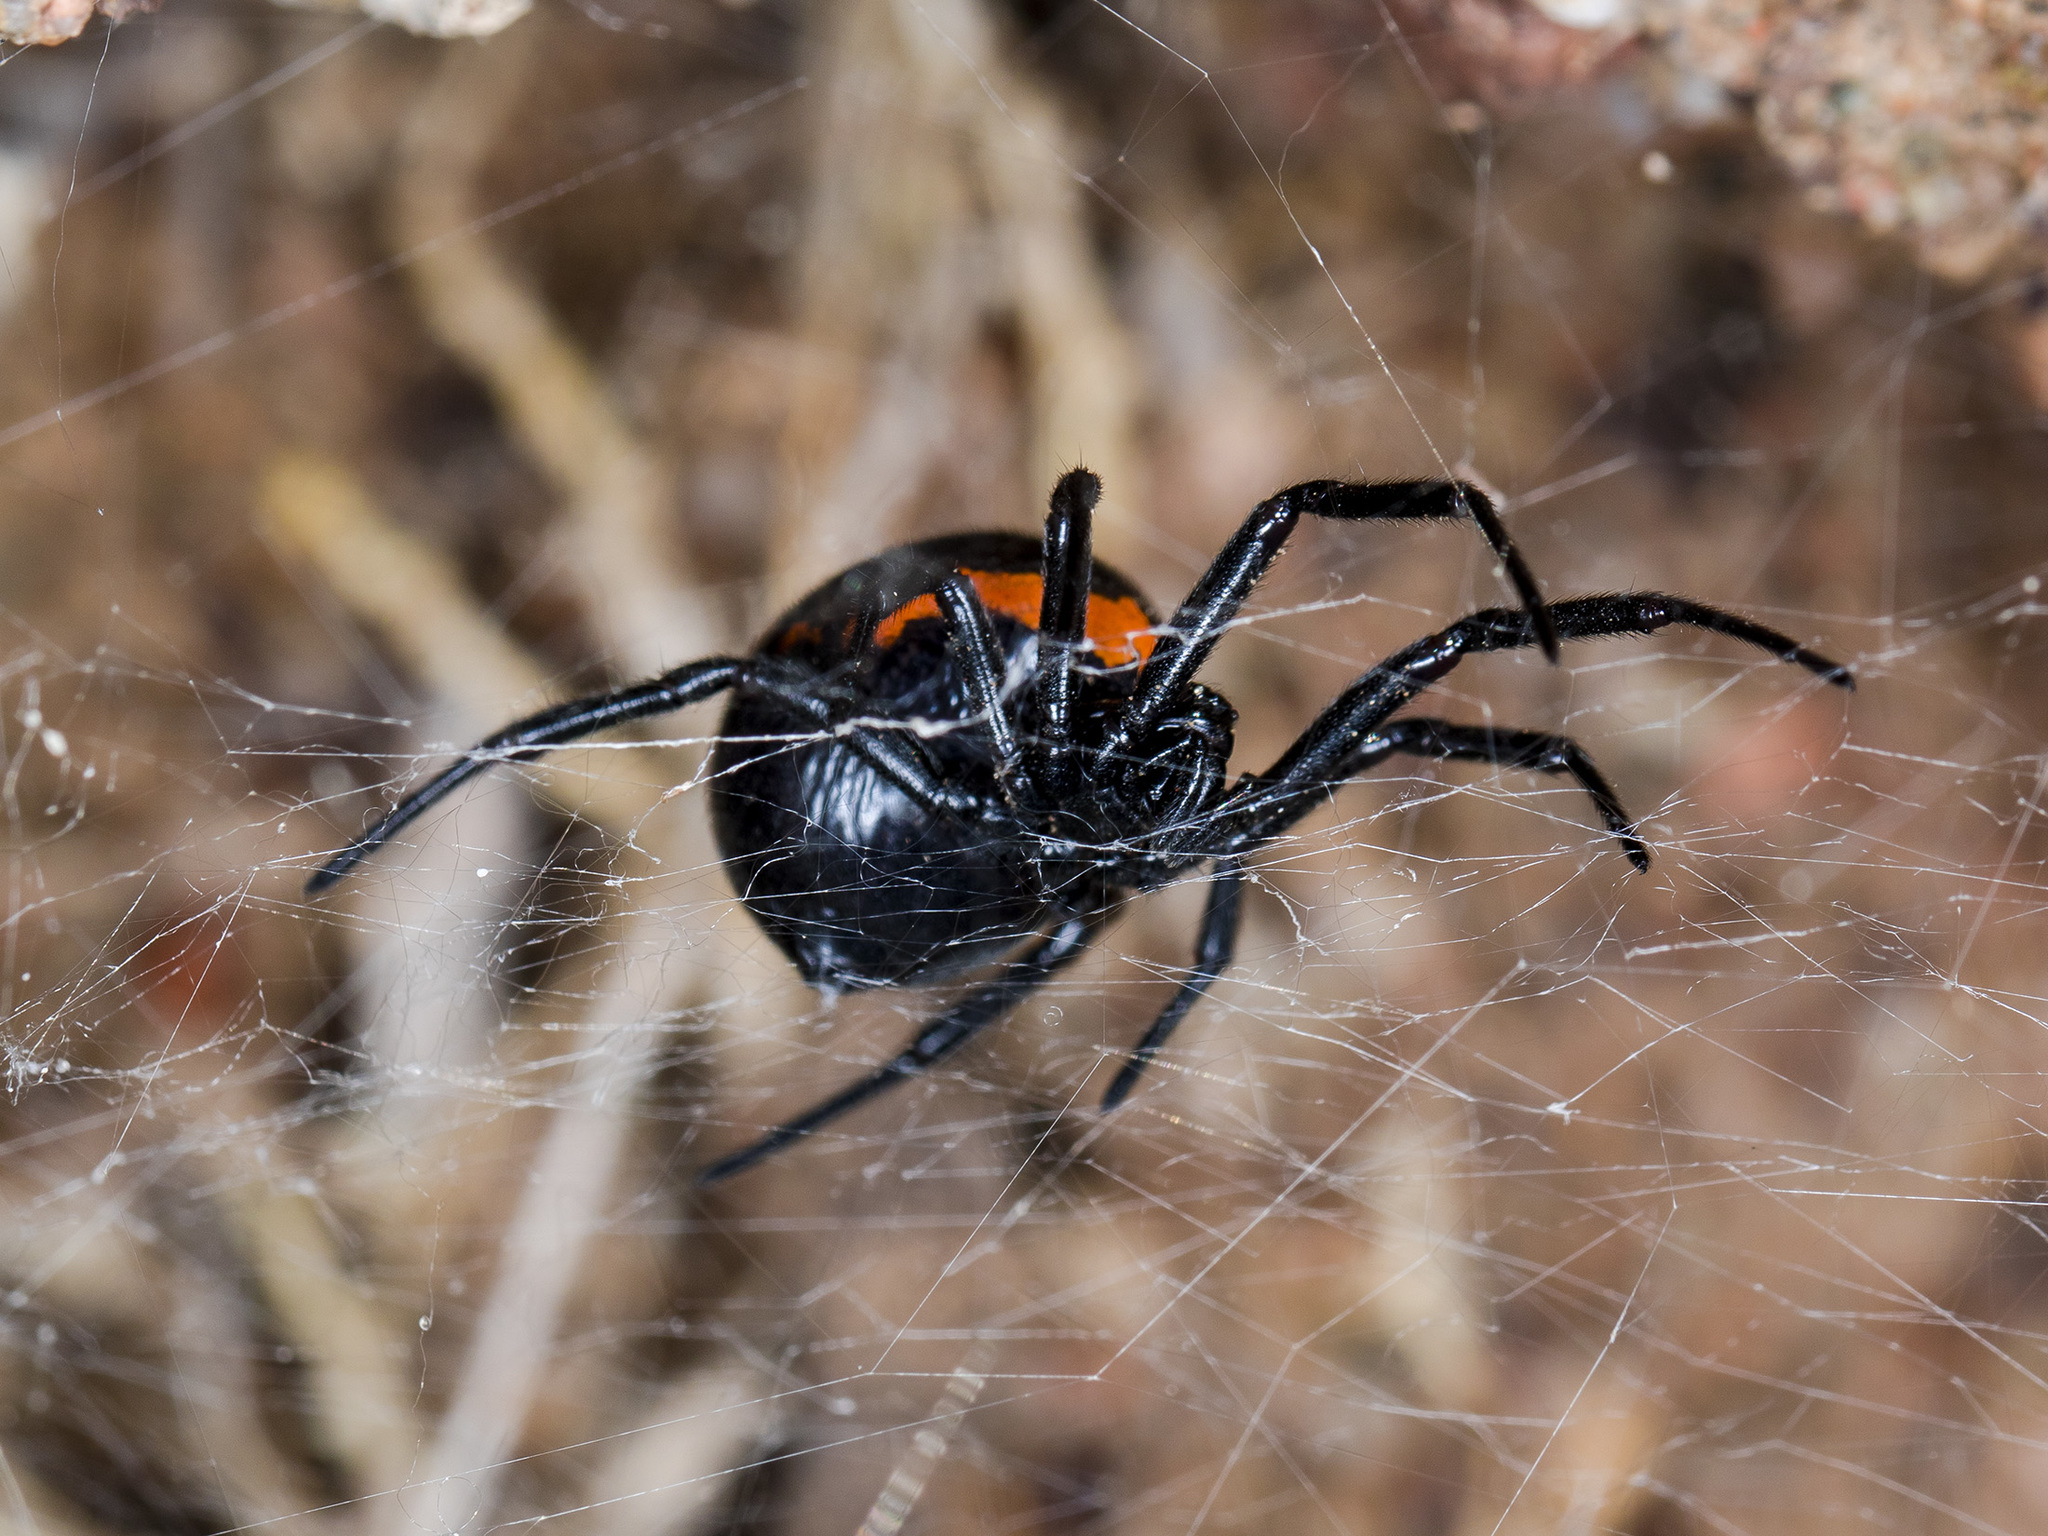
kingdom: Animalia
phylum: Arthropoda
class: Arachnida
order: Araneae
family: Theridiidae
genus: Steatoda
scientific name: Steatoda paykulliana
